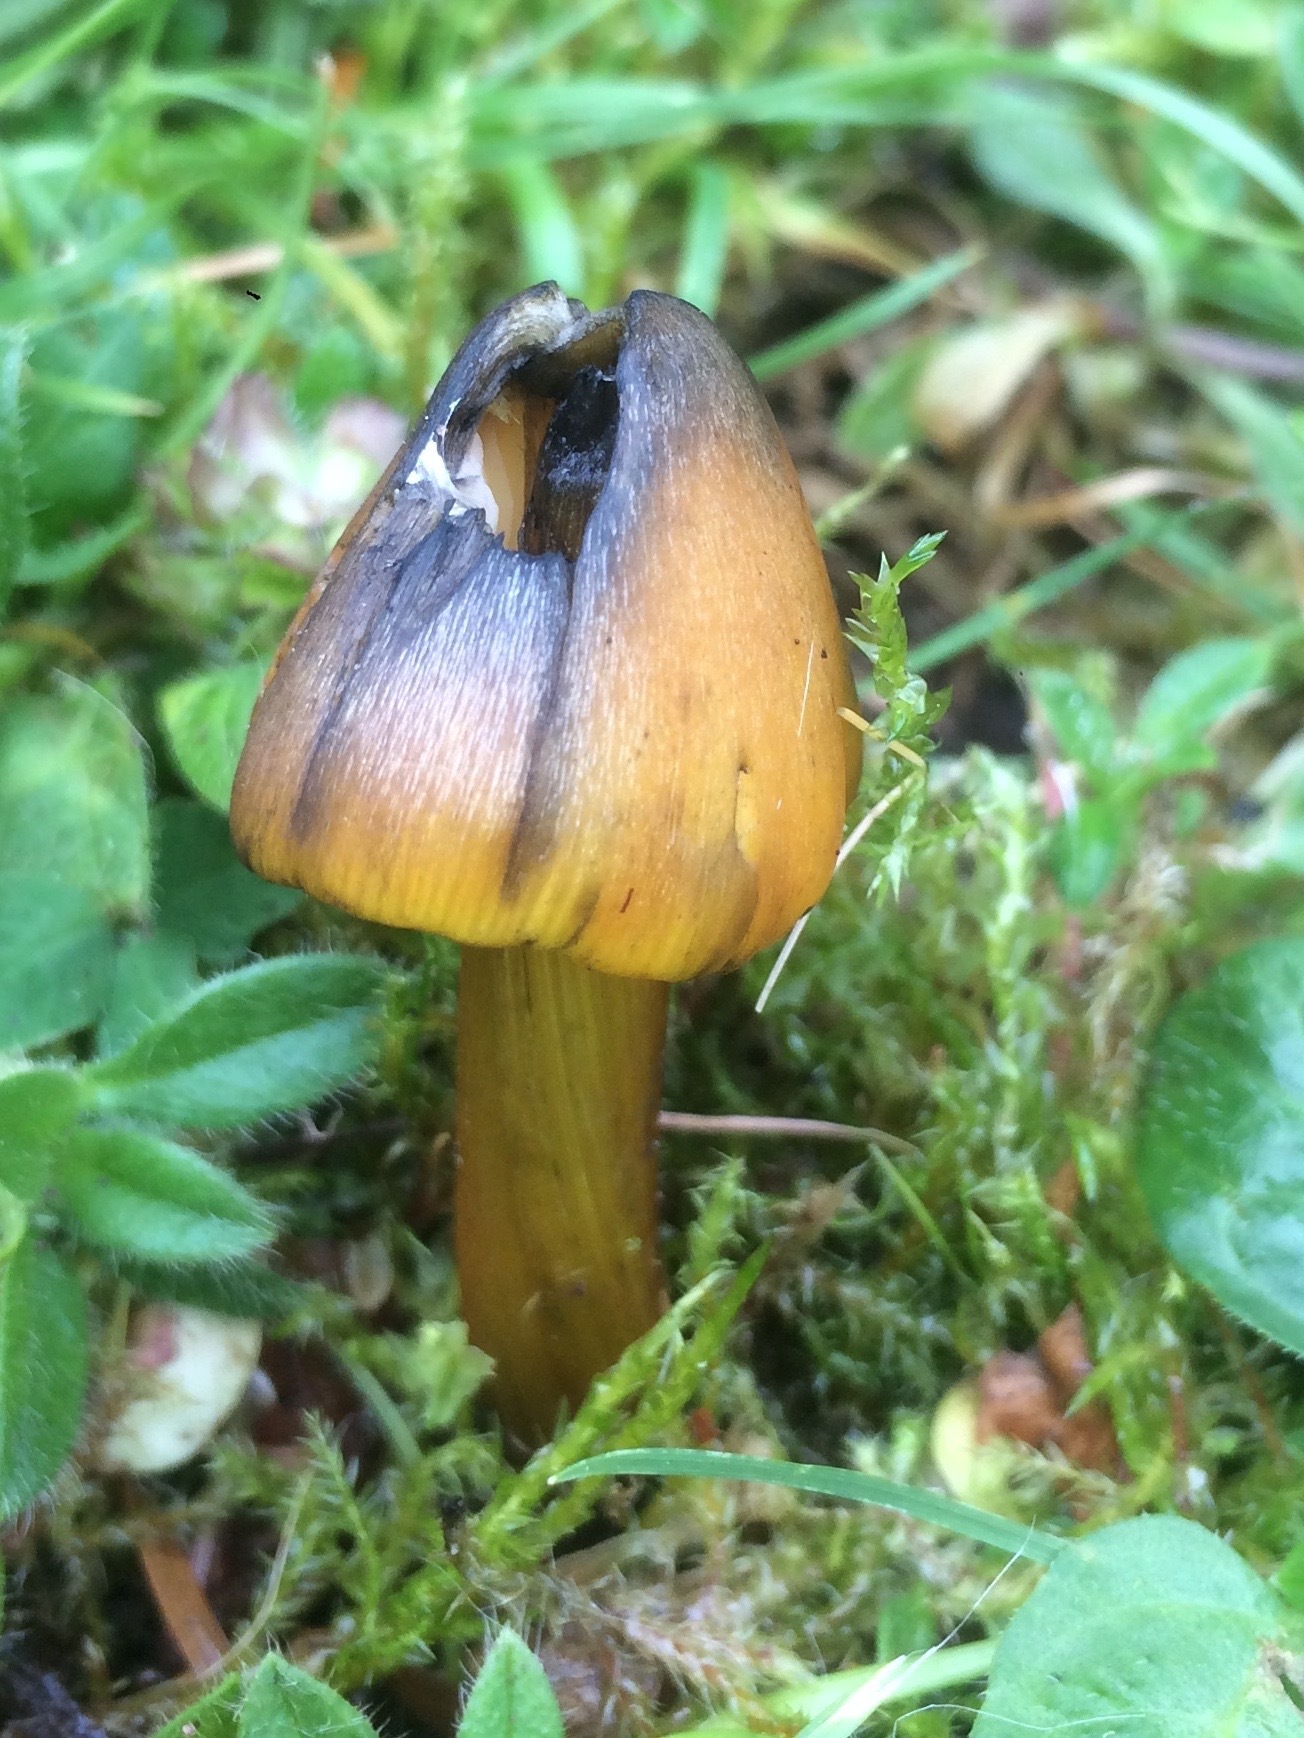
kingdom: Fungi
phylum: Basidiomycota
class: Agaricomycetes
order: Agaricales
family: Hygrophoraceae
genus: Hygrocybe
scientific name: Hygrocybe conica
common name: Blackening wax-cap
